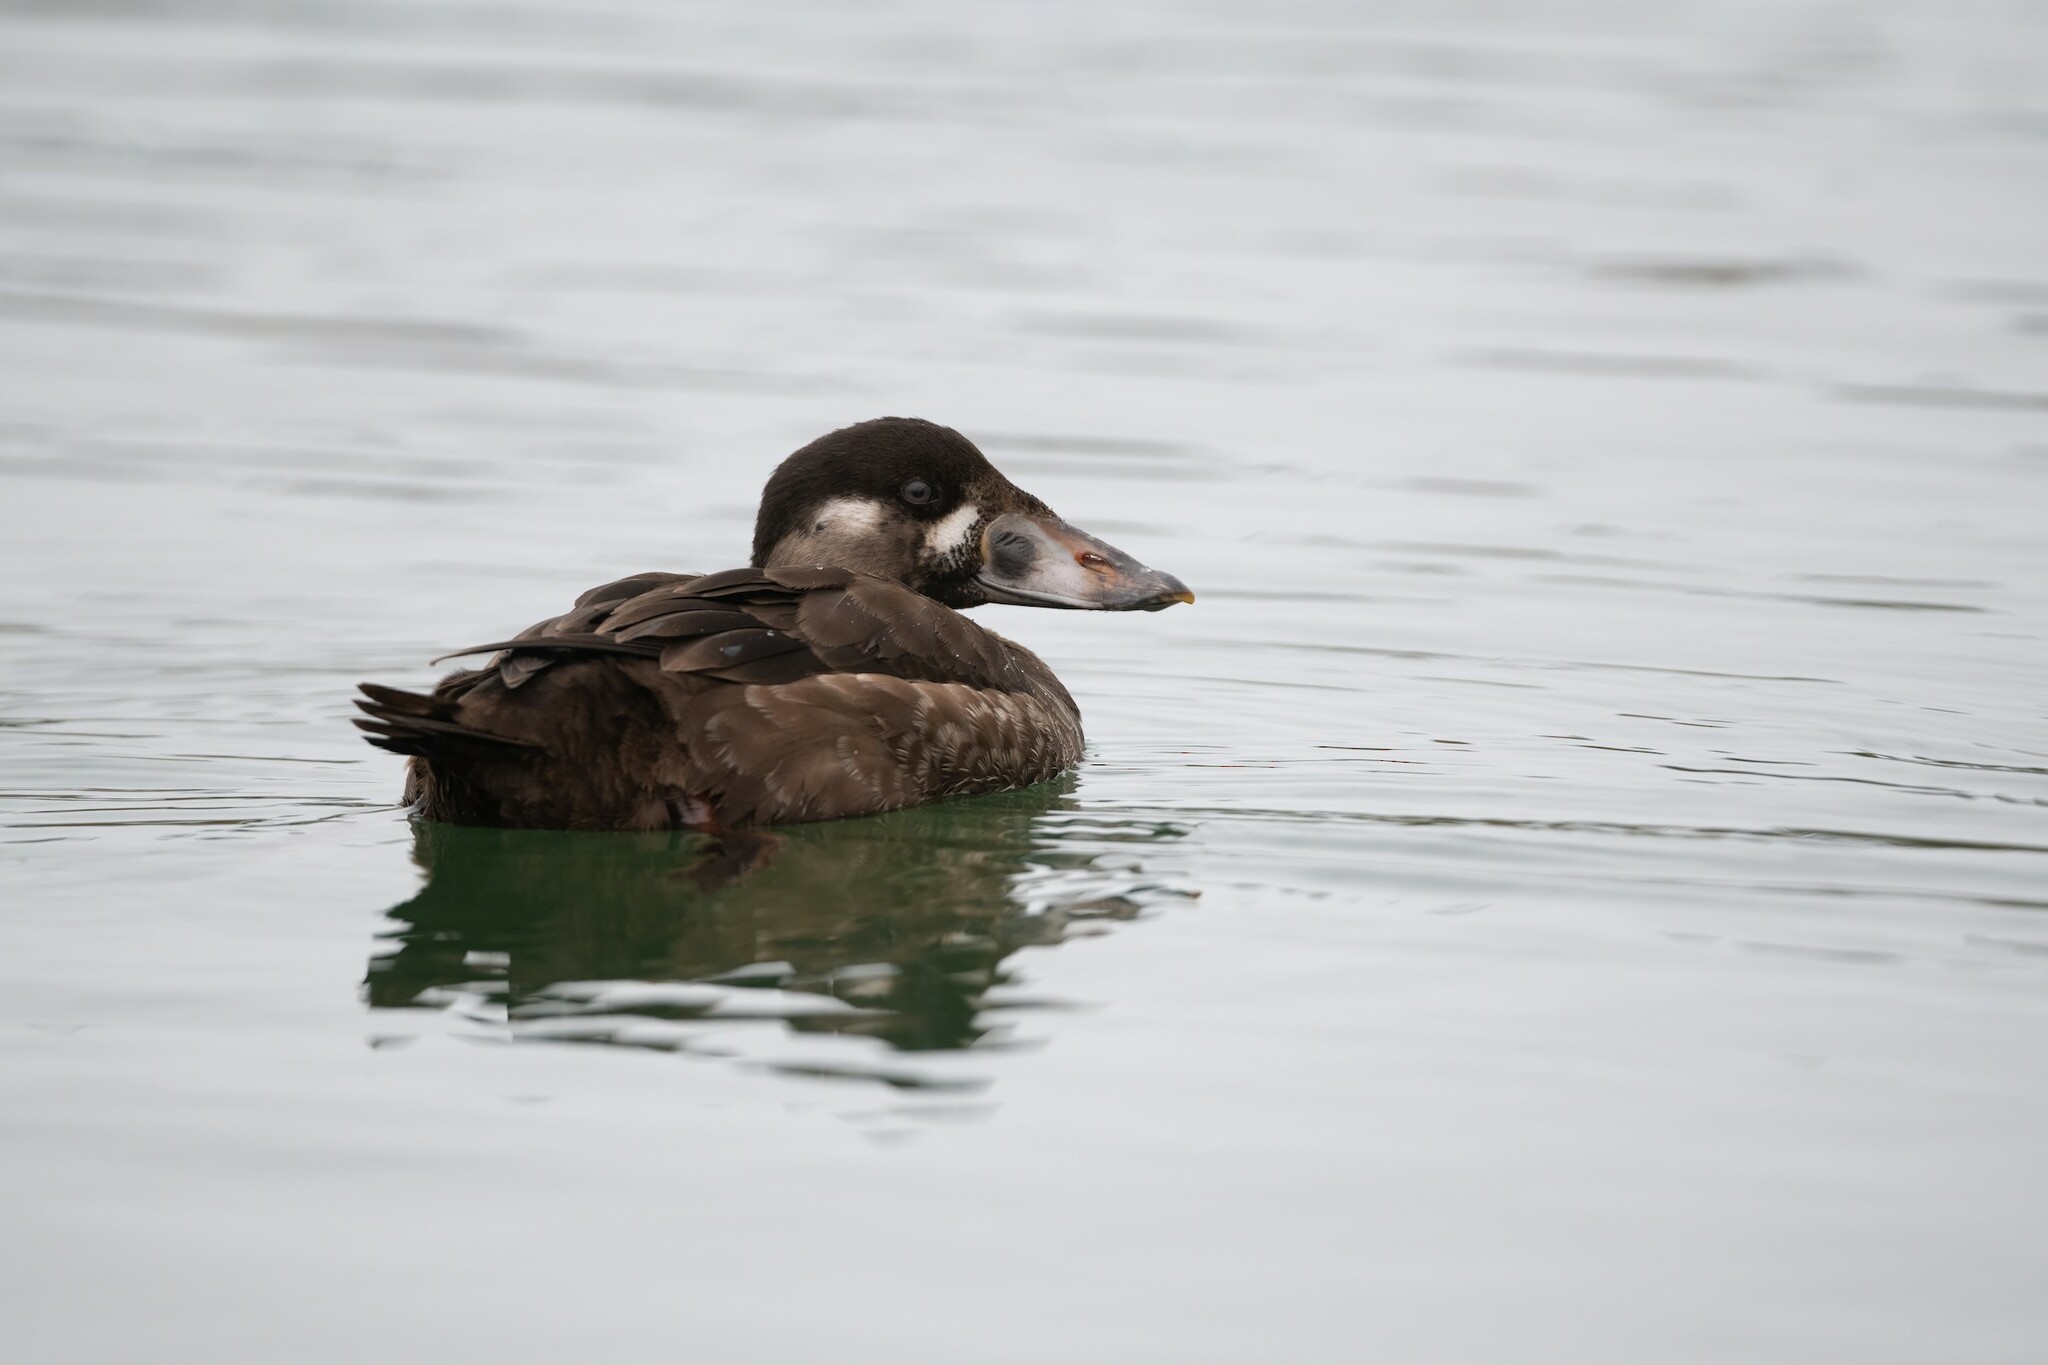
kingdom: Animalia
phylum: Chordata
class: Aves
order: Anseriformes
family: Anatidae
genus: Melanitta
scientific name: Melanitta perspicillata
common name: Surf scoter
